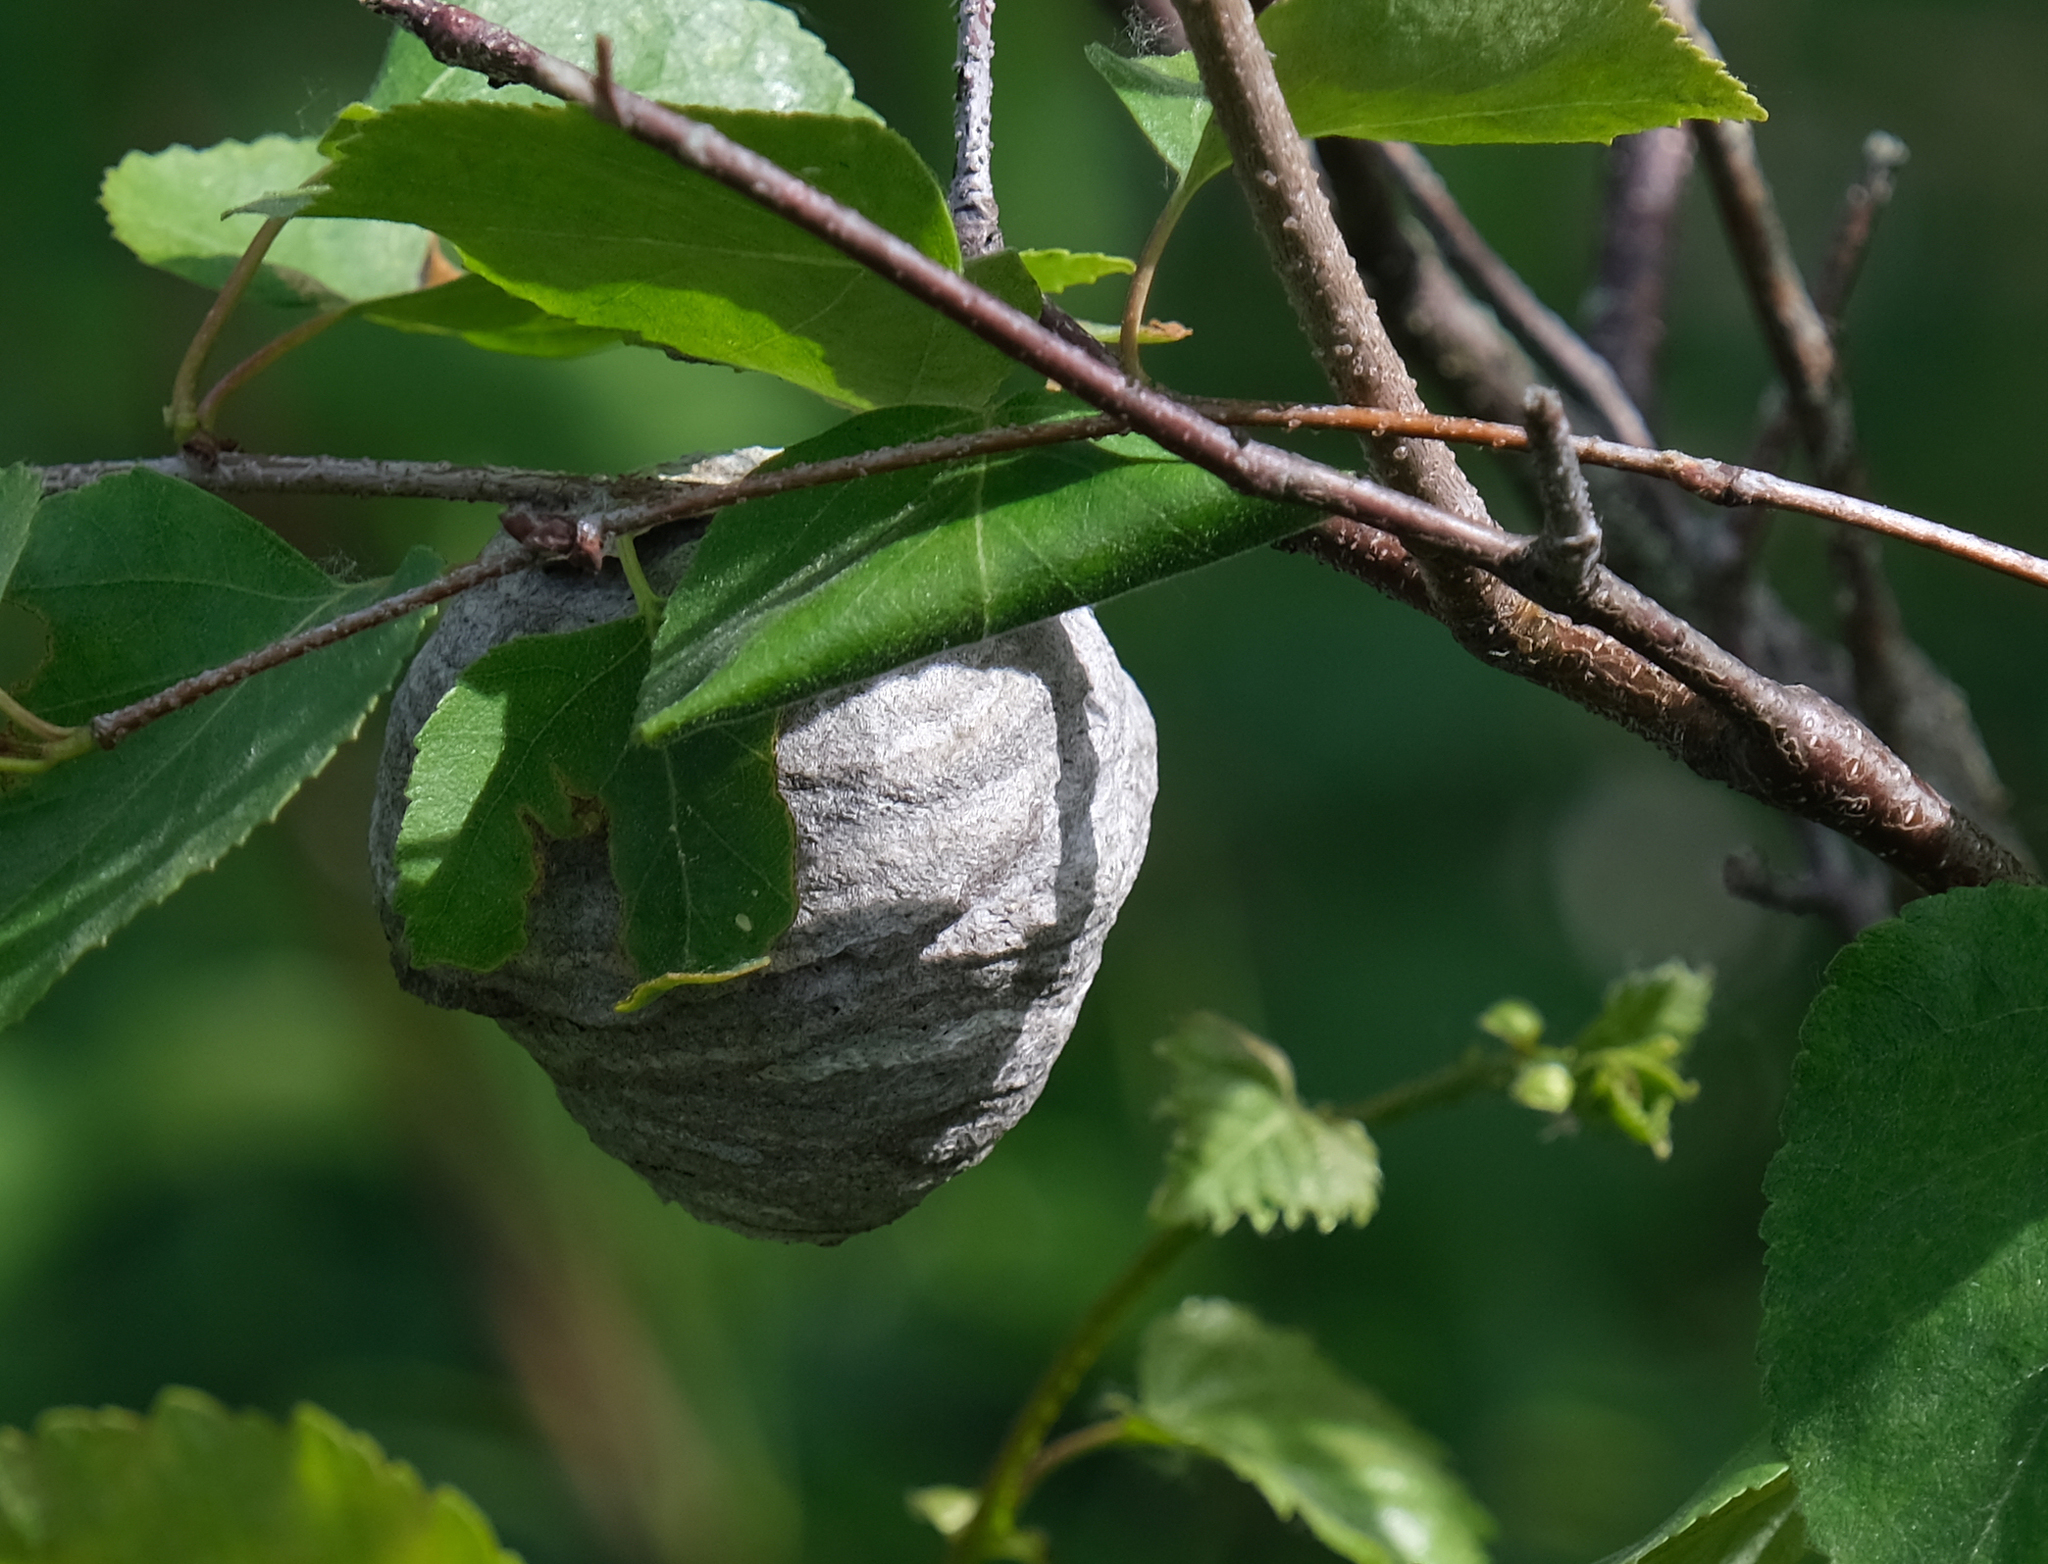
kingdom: Animalia
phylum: Arthropoda
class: Insecta
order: Hymenoptera
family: Vespidae
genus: Dolichovespula
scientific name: Dolichovespula
